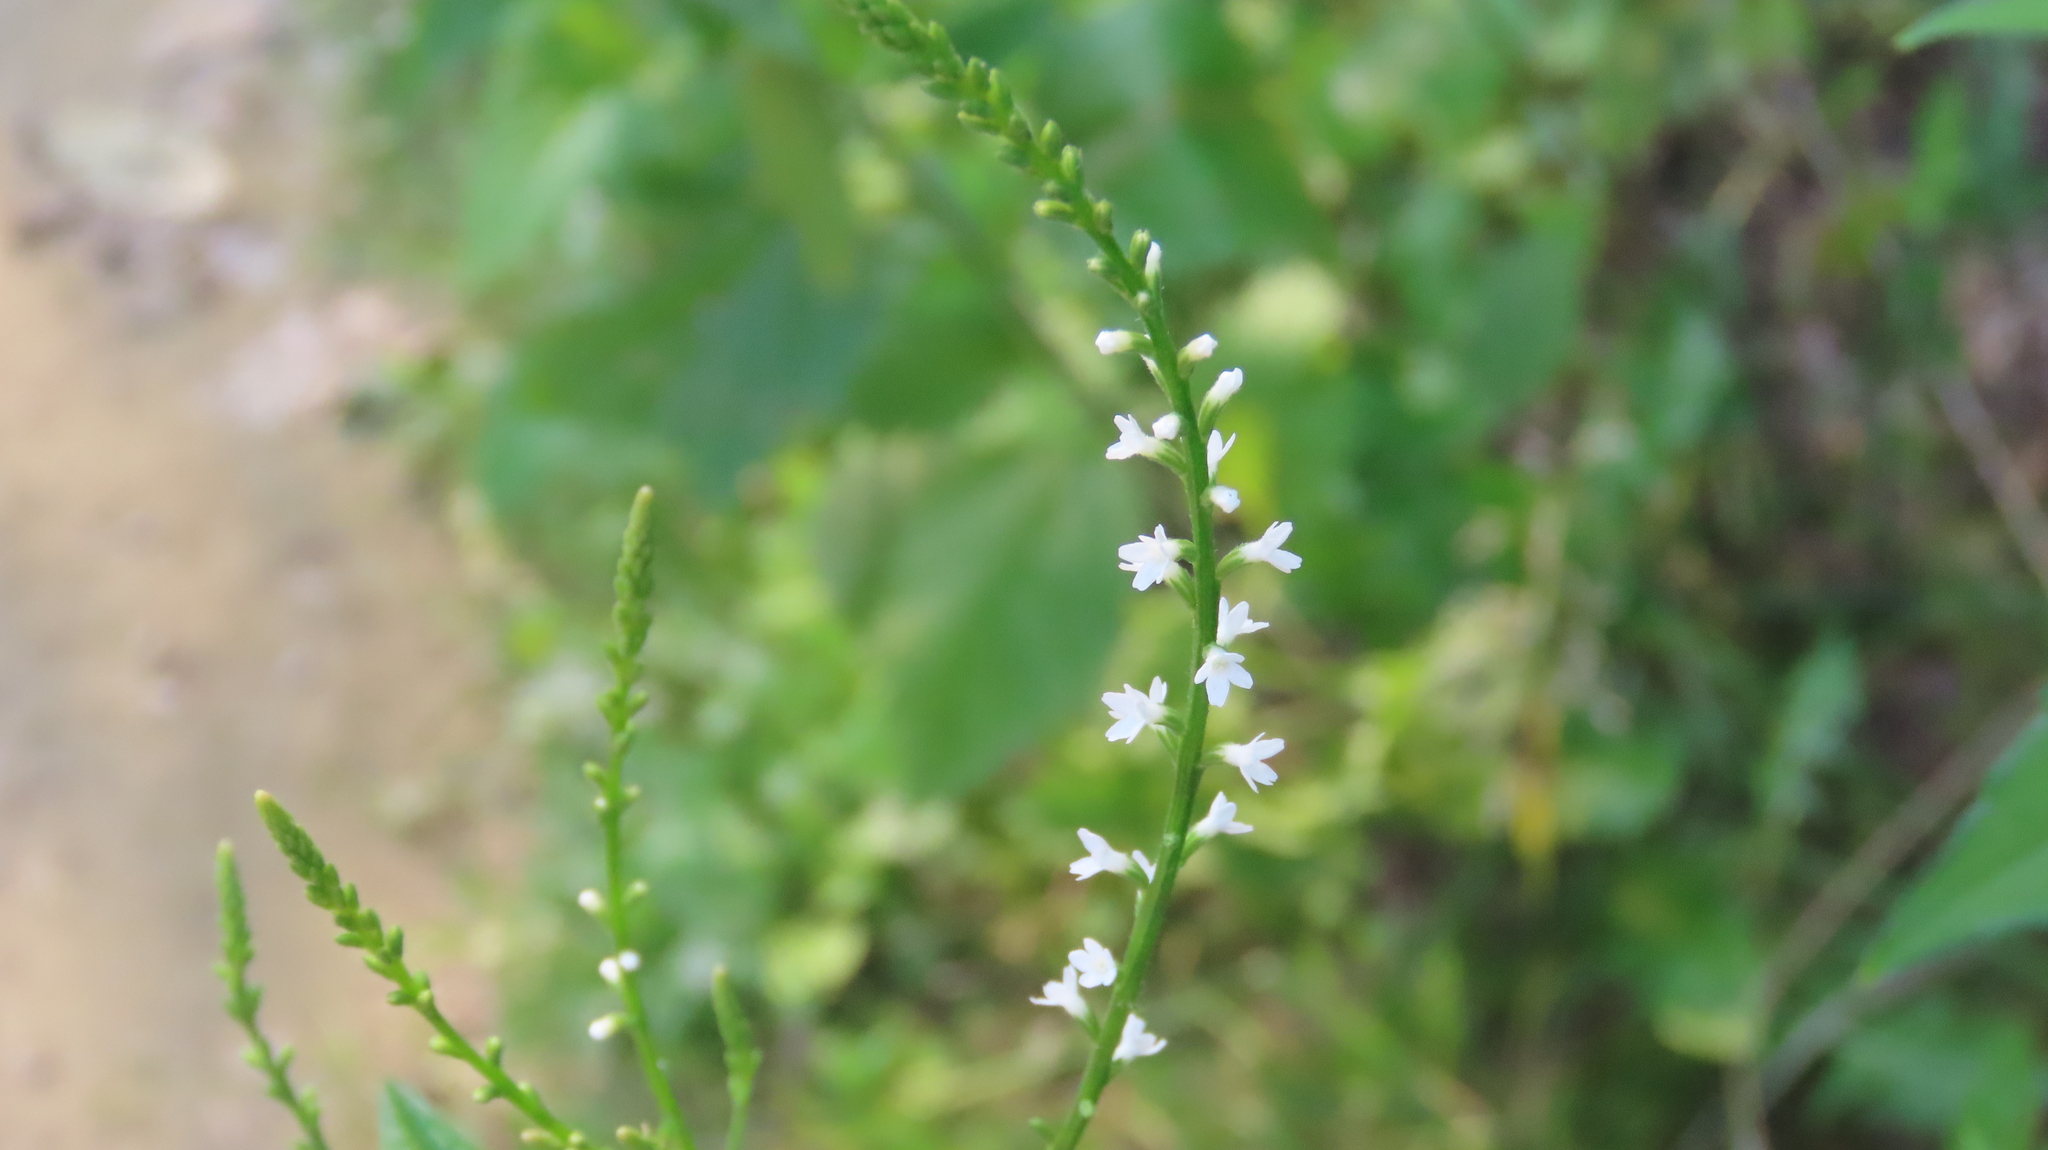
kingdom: Plantae
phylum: Tracheophyta
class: Magnoliopsida
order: Lamiales
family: Verbenaceae
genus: Verbena
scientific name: Verbena urticifolia
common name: Nettle-leaved vervain
